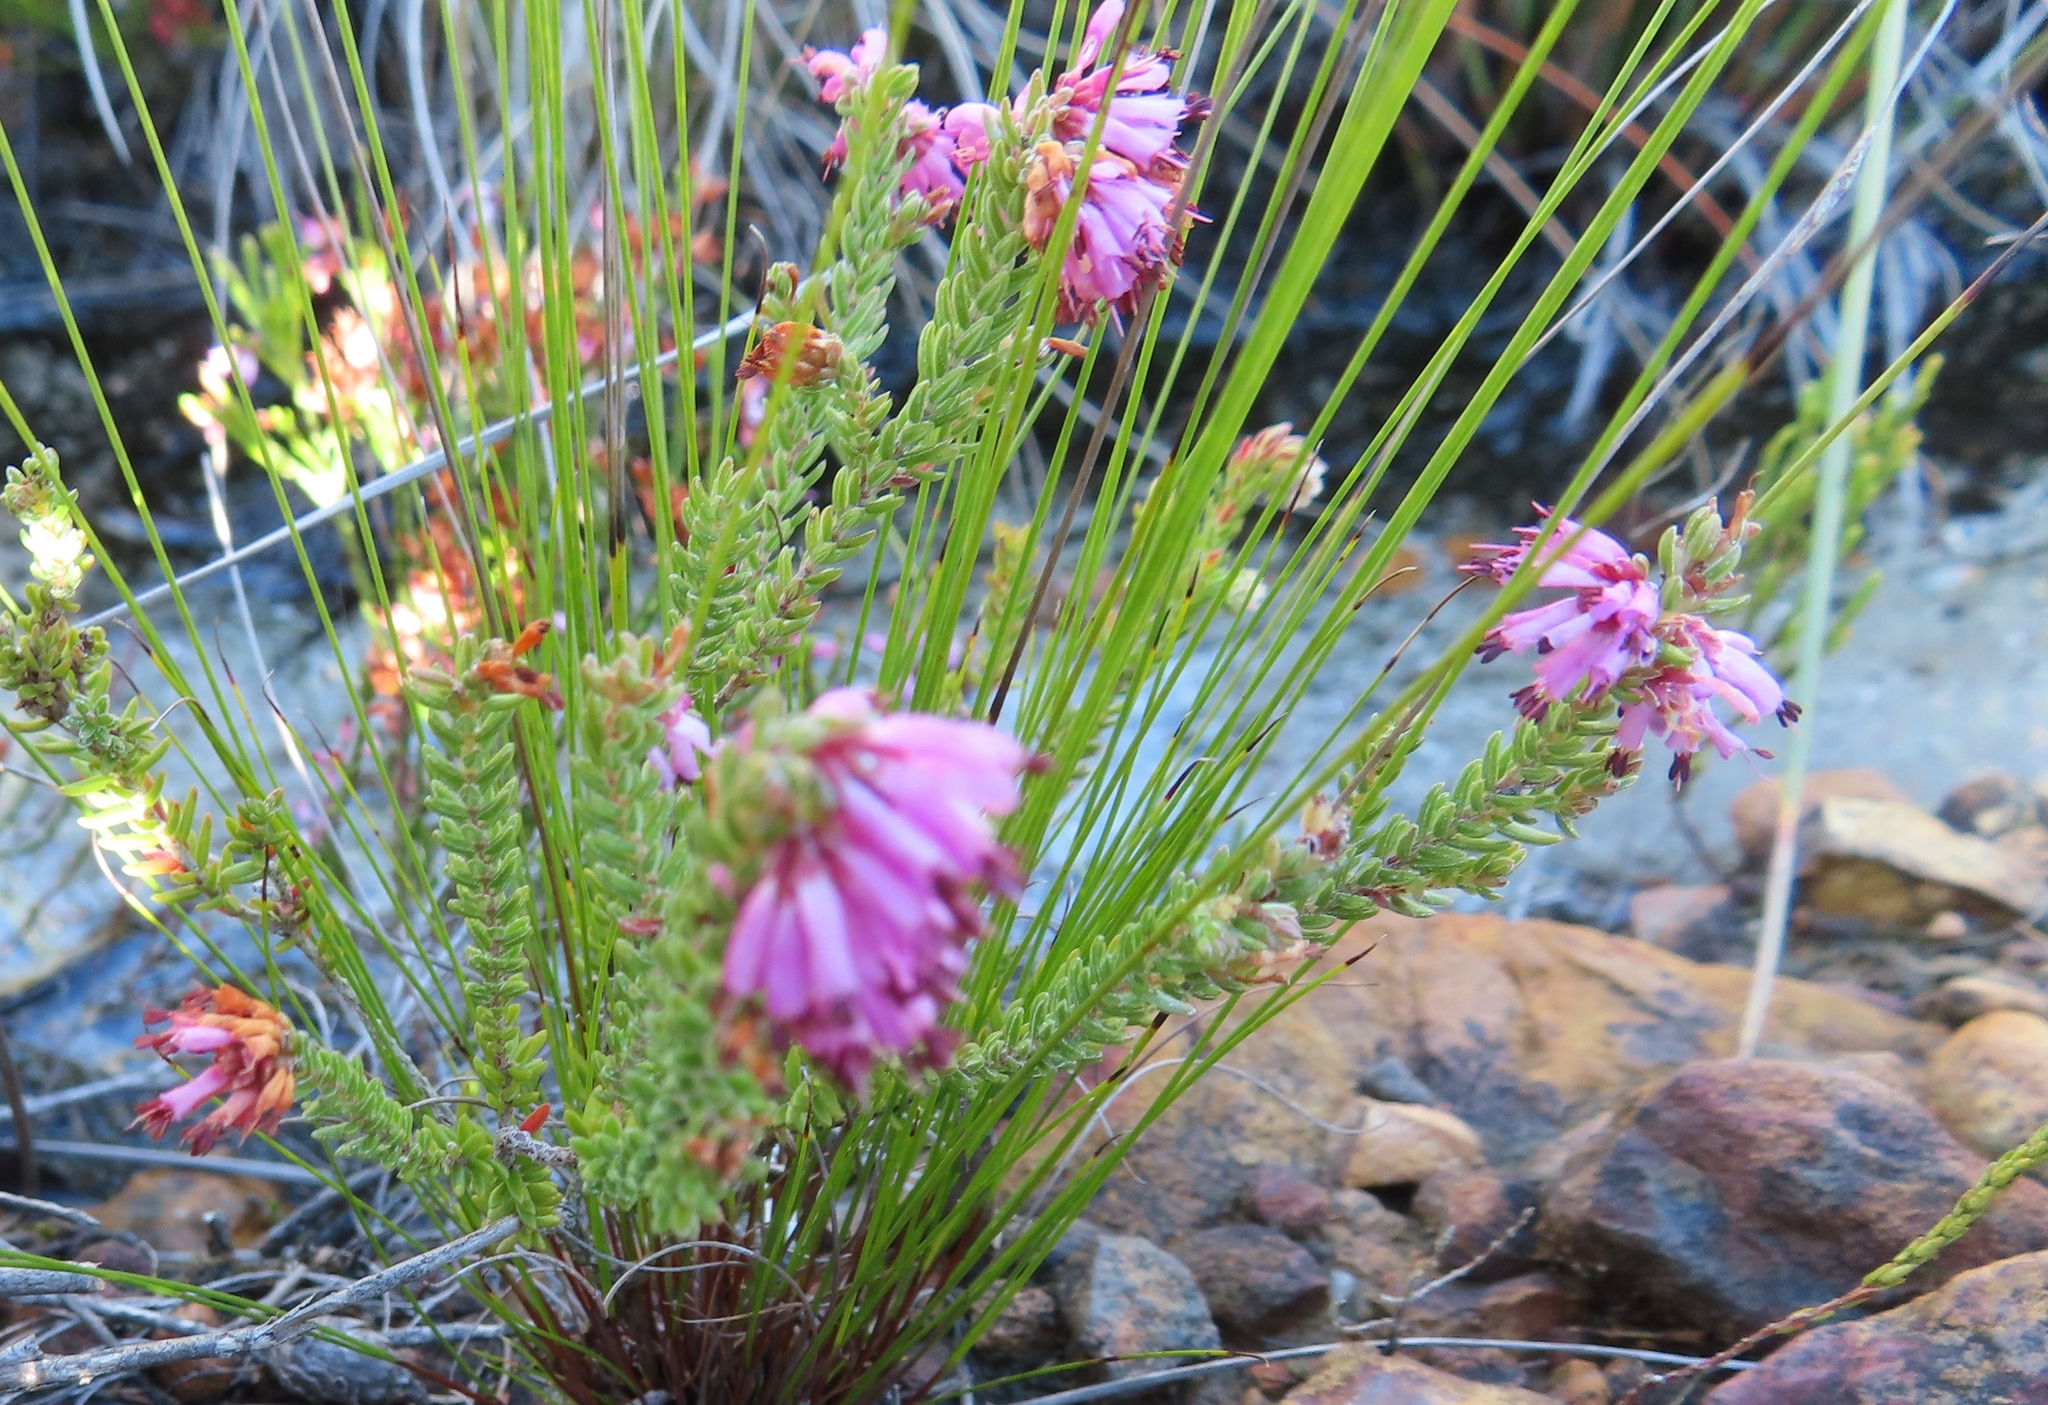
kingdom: Plantae
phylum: Tracheophyta
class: Magnoliopsida
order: Ericales
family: Ericaceae
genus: Erica
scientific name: Erica labialis
